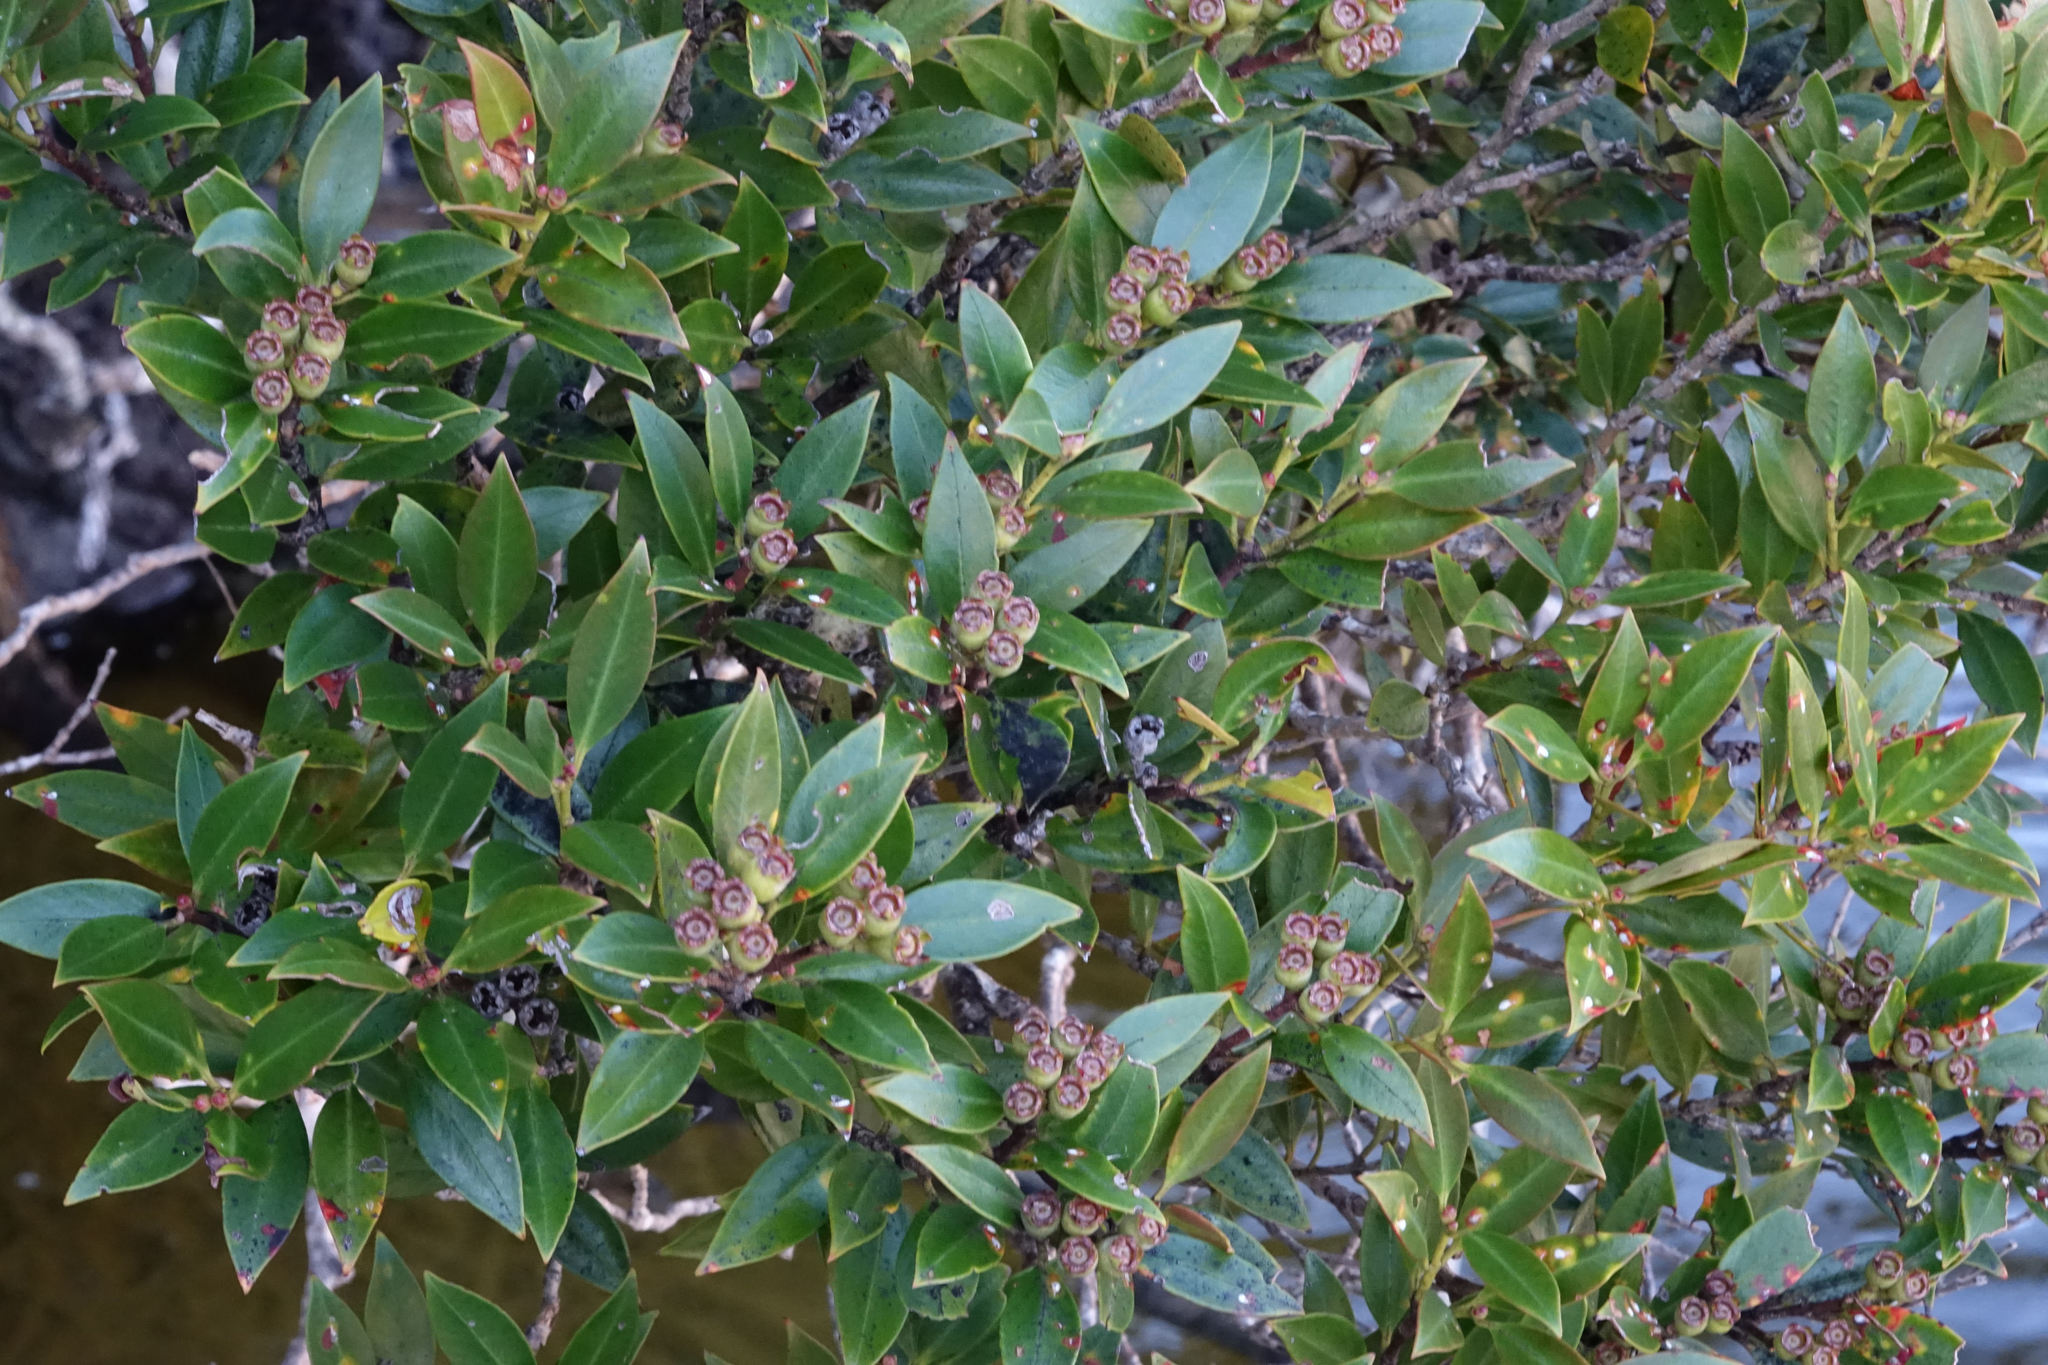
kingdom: Plantae
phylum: Tracheophyta
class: Magnoliopsida
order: Myrtales
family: Myrtaceae
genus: Metrosideros
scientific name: Metrosideros umbellata
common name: Southern rata
